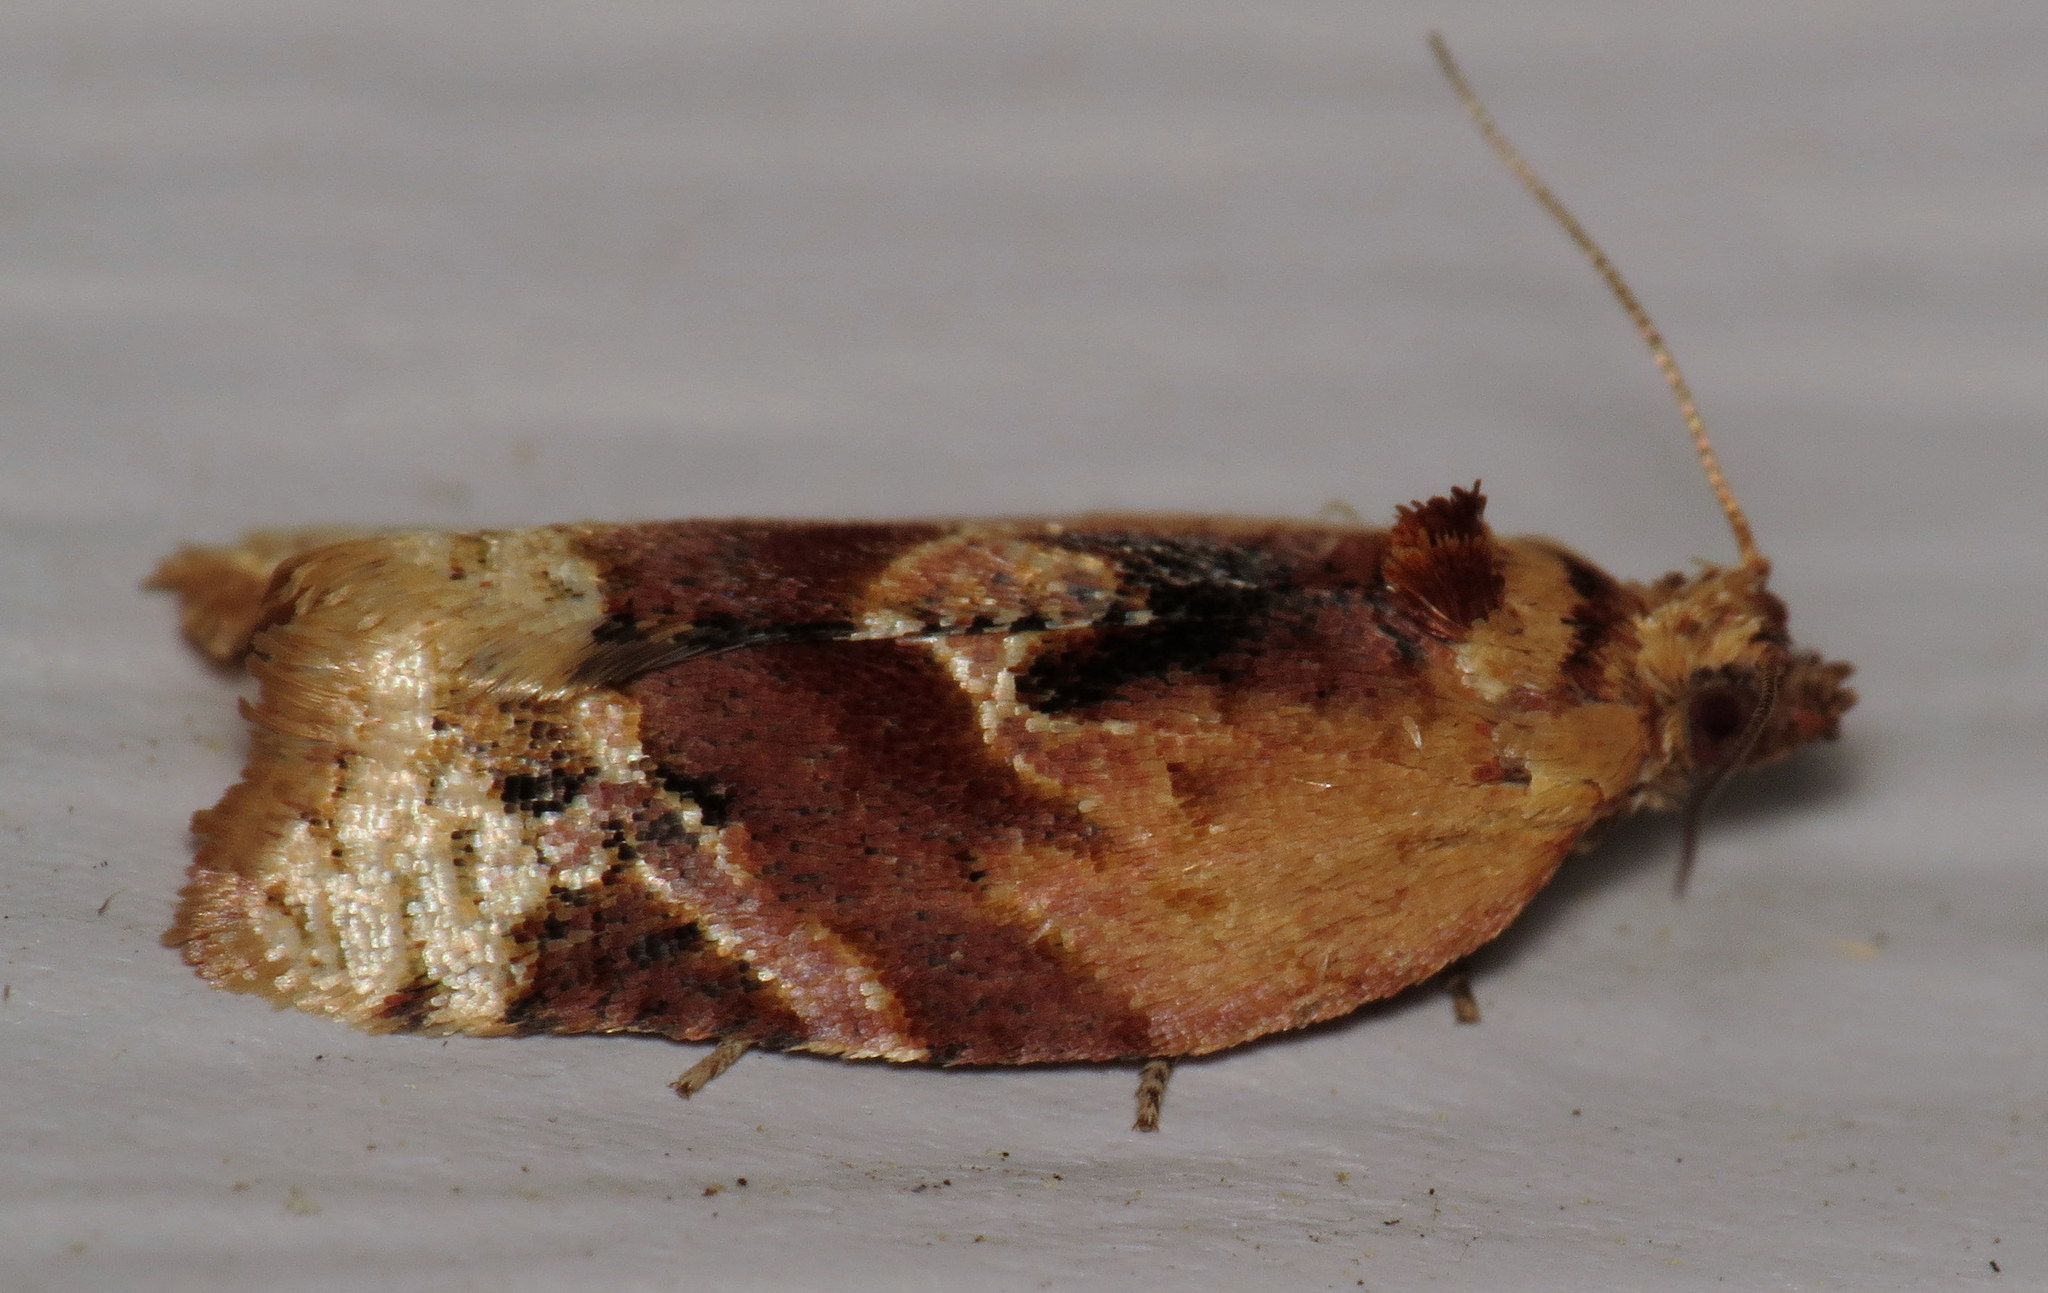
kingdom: Animalia
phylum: Arthropoda
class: Insecta
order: Lepidoptera
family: Tortricidae
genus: Argyrotaenia
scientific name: Argyrotaenia velutinana
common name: Red-banded leafroller moth
